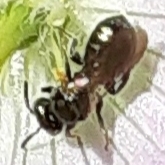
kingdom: Animalia
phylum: Arthropoda
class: Insecta
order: Hymenoptera
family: Apidae
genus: Zadontomerus
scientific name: Zadontomerus
